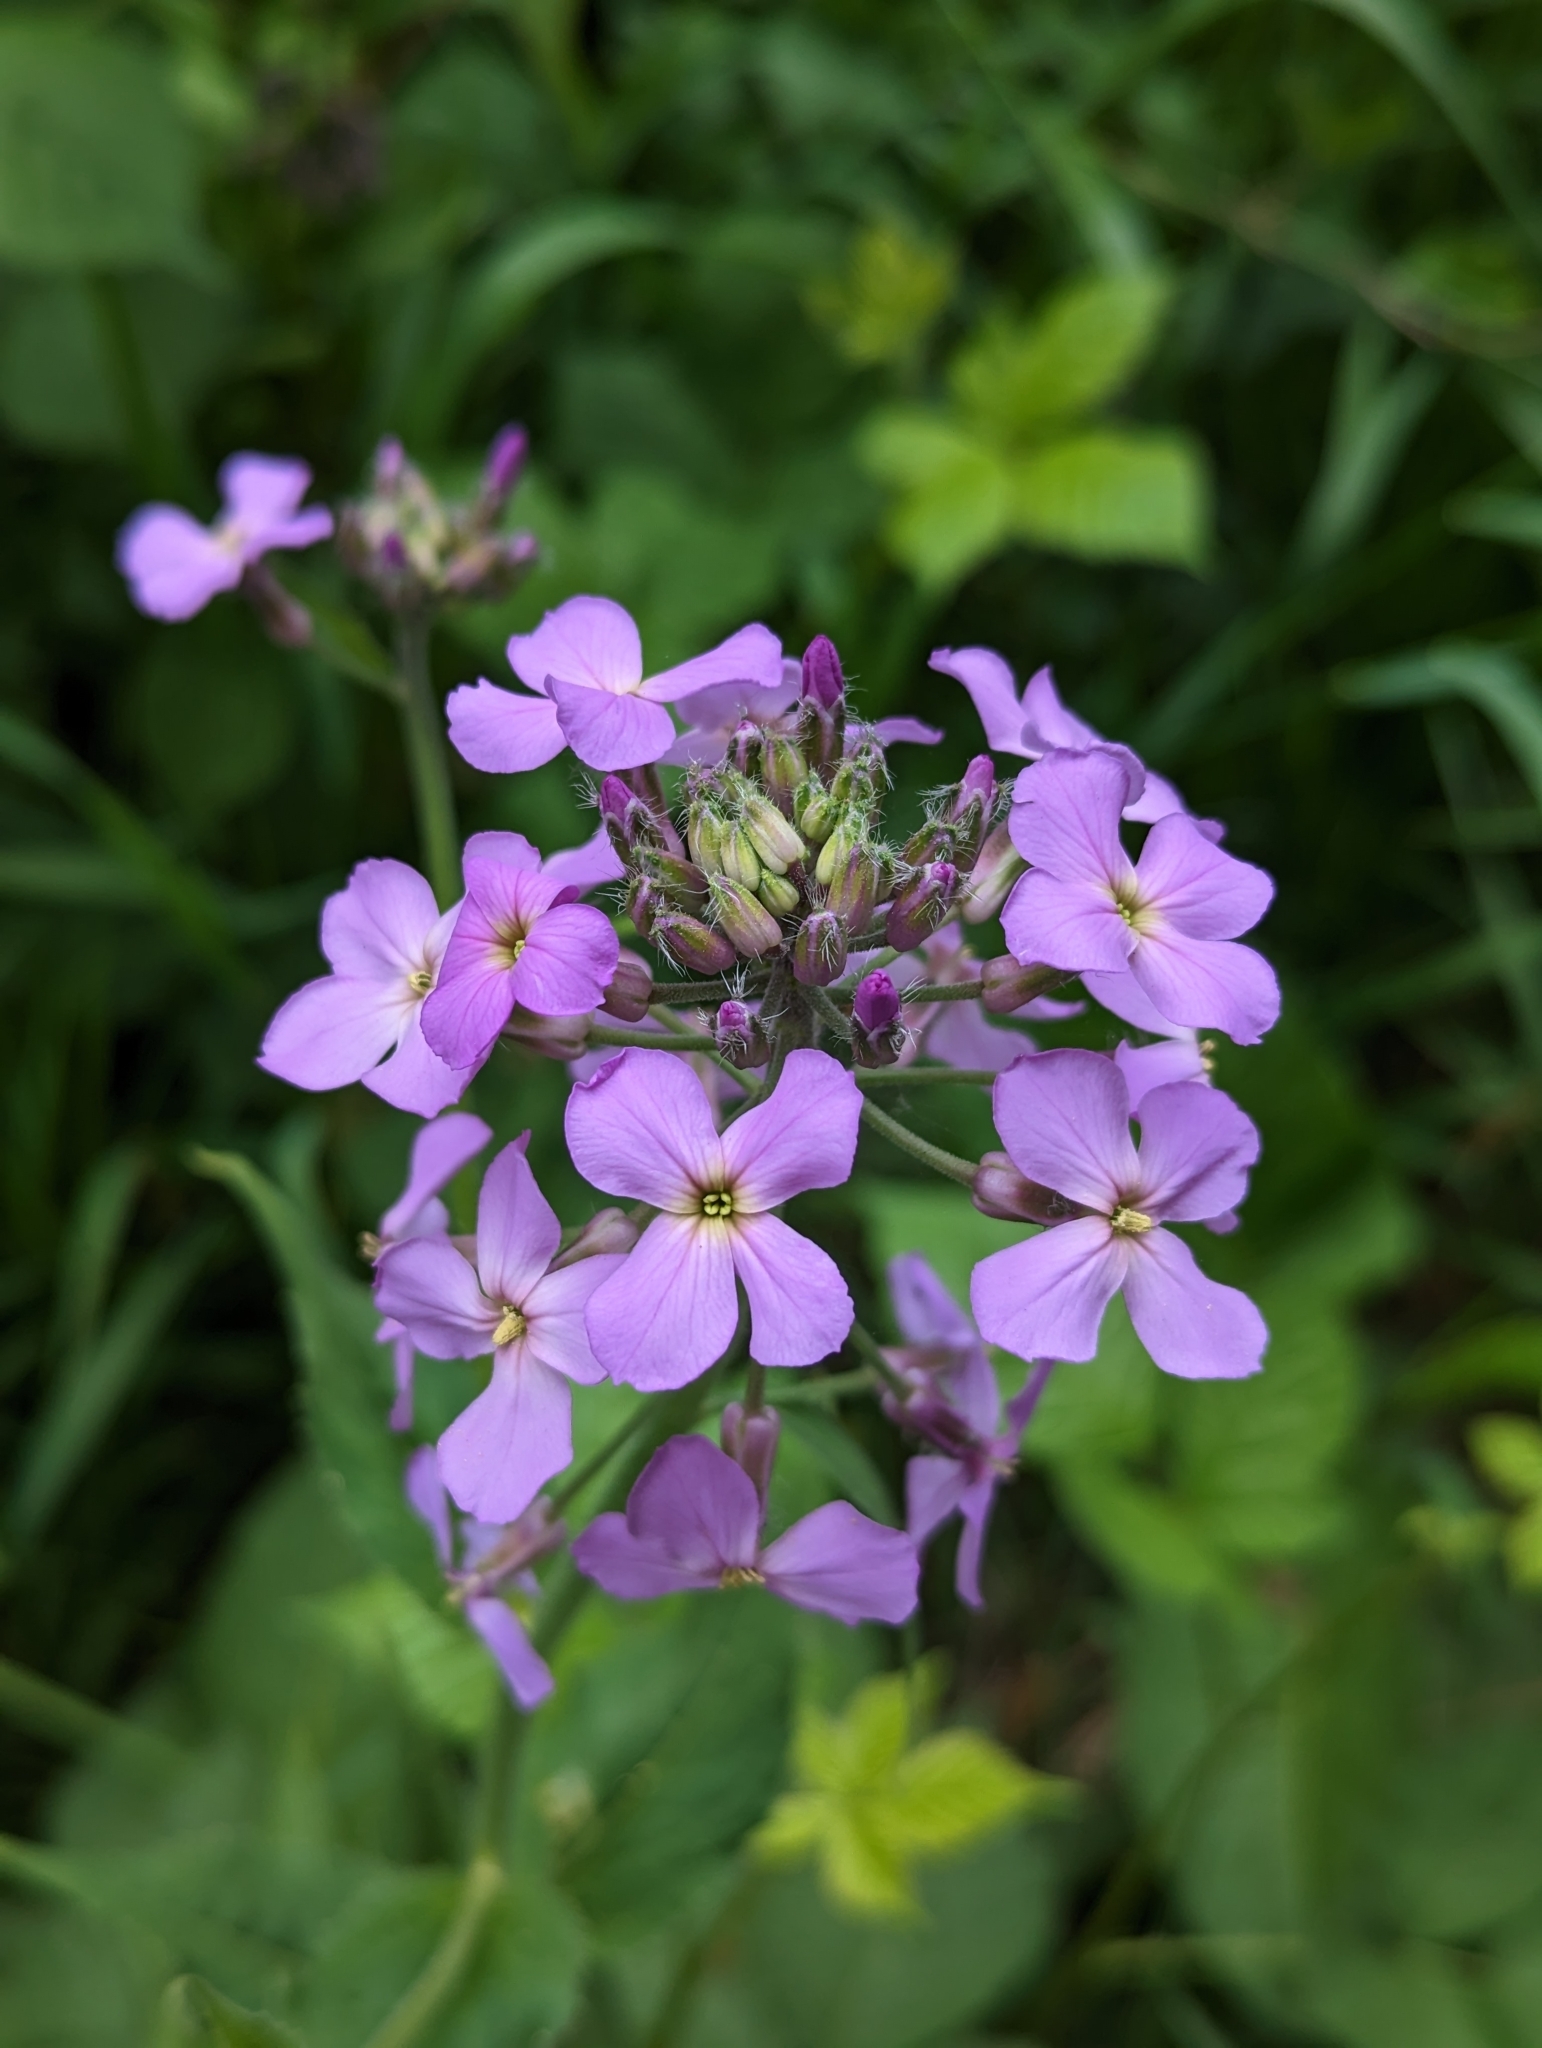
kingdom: Plantae
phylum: Tracheophyta
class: Magnoliopsida
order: Brassicales
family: Brassicaceae
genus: Hesperis
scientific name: Hesperis matronalis
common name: Dame's-violet
